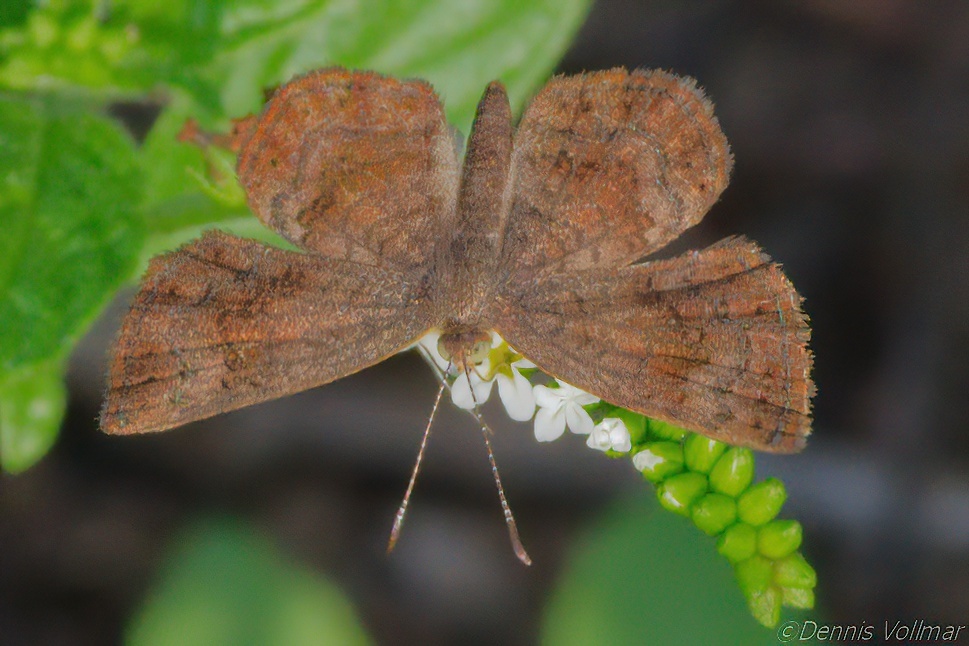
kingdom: Animalia
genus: Calephelis
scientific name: Calephelis perditalis
